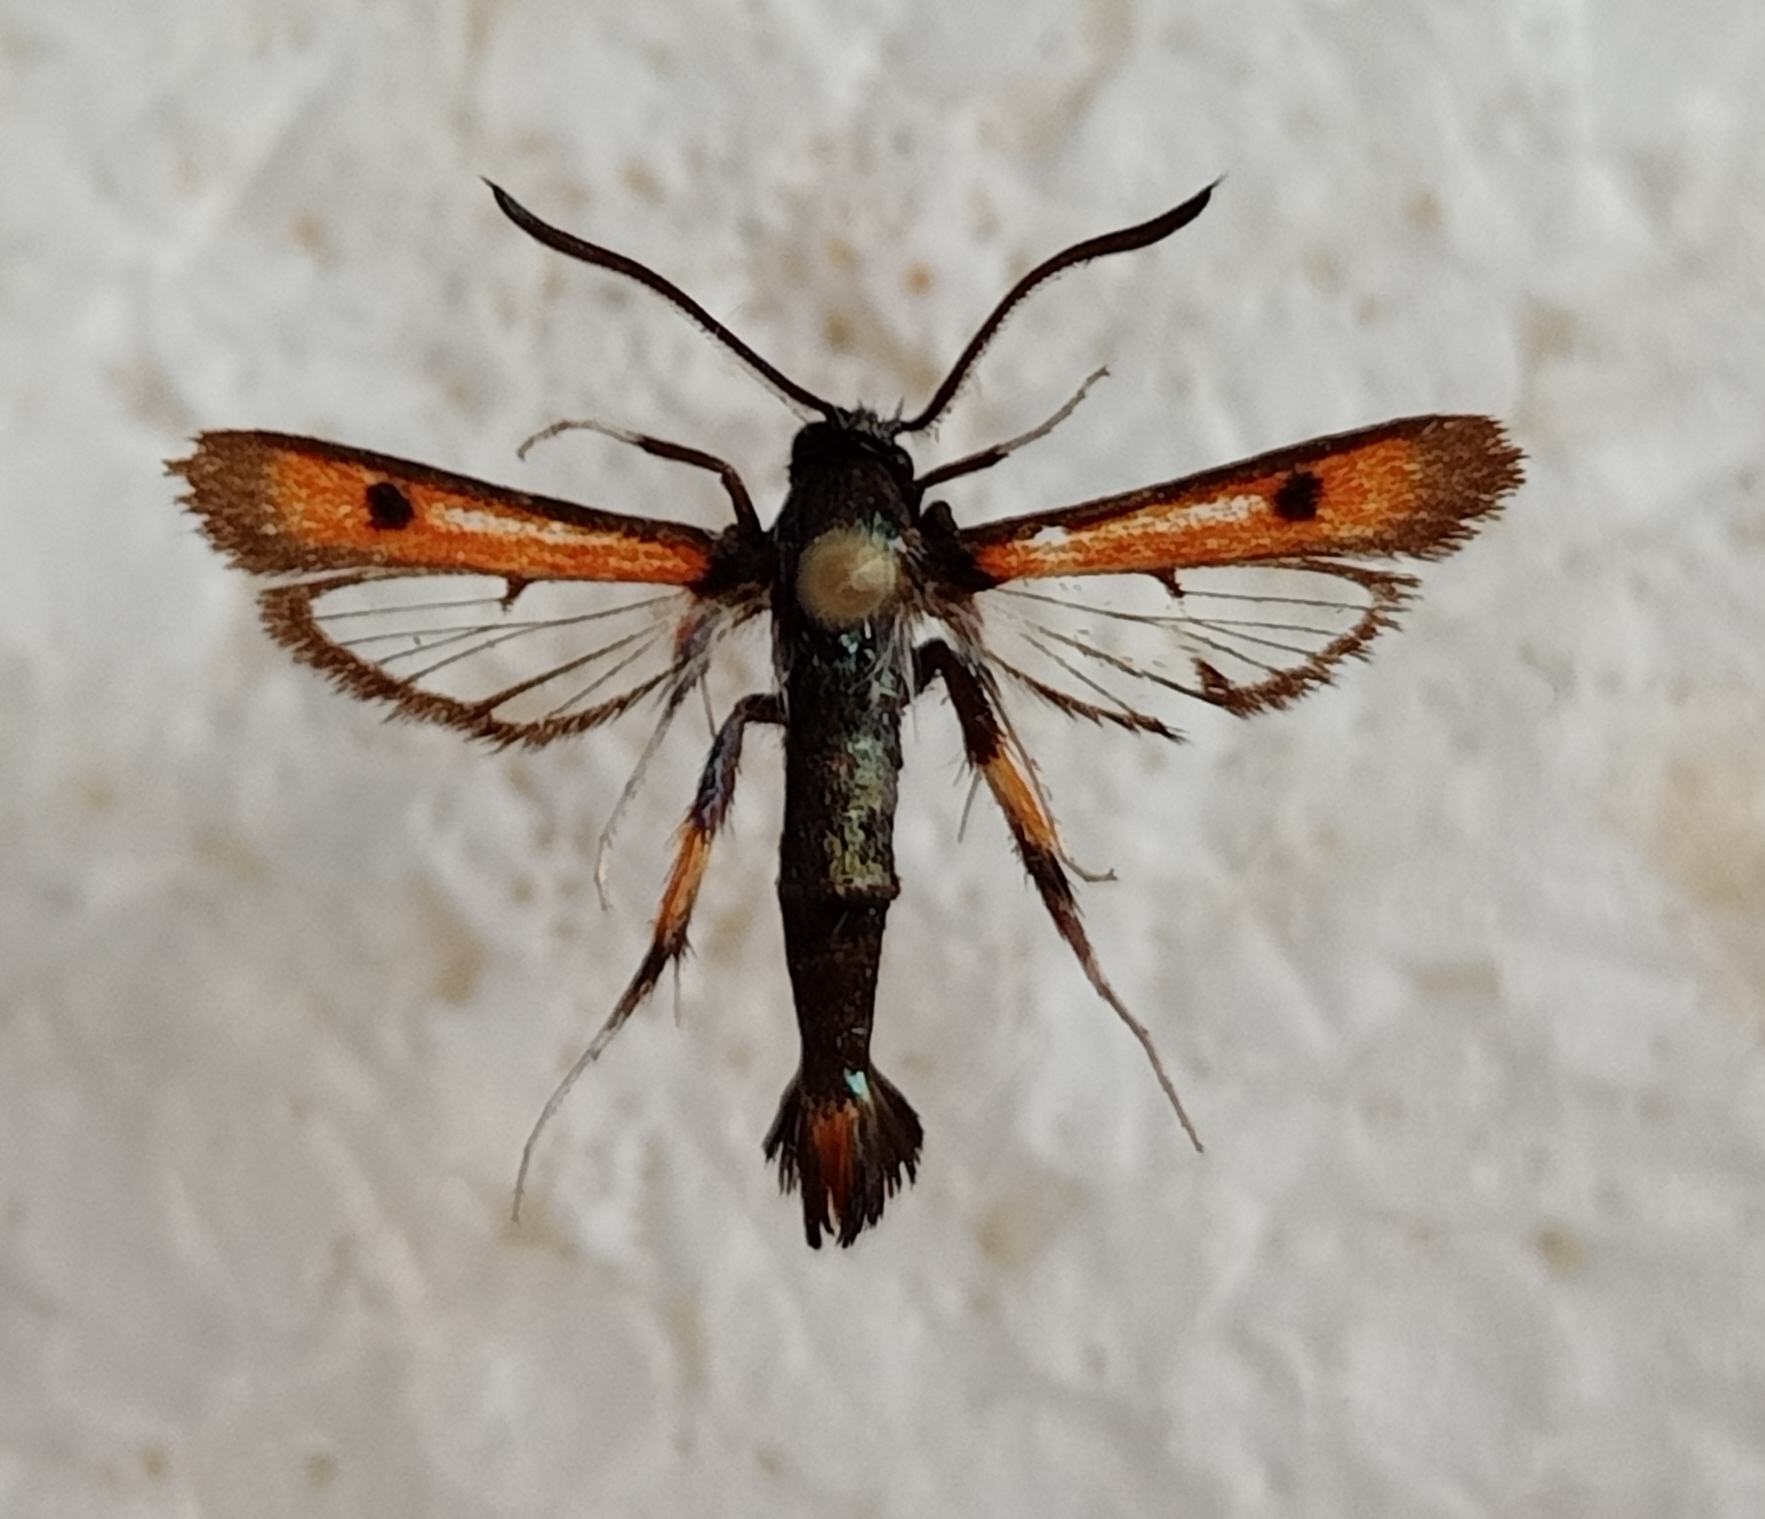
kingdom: Animalia
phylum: Arthropoda
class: Insecta
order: Lepidoptera
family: Sesiidae
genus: Chamaesphecia
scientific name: Chamaesphecia chalciformis
